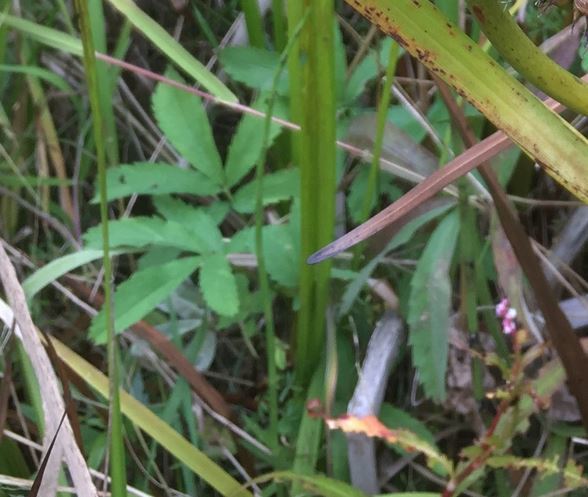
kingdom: Plantae
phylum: Tracheophyta
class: Magnoliopsida
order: Rosales
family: Rosaceae
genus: Comarum
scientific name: Comarum palustre
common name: Marsh cinquefoil
